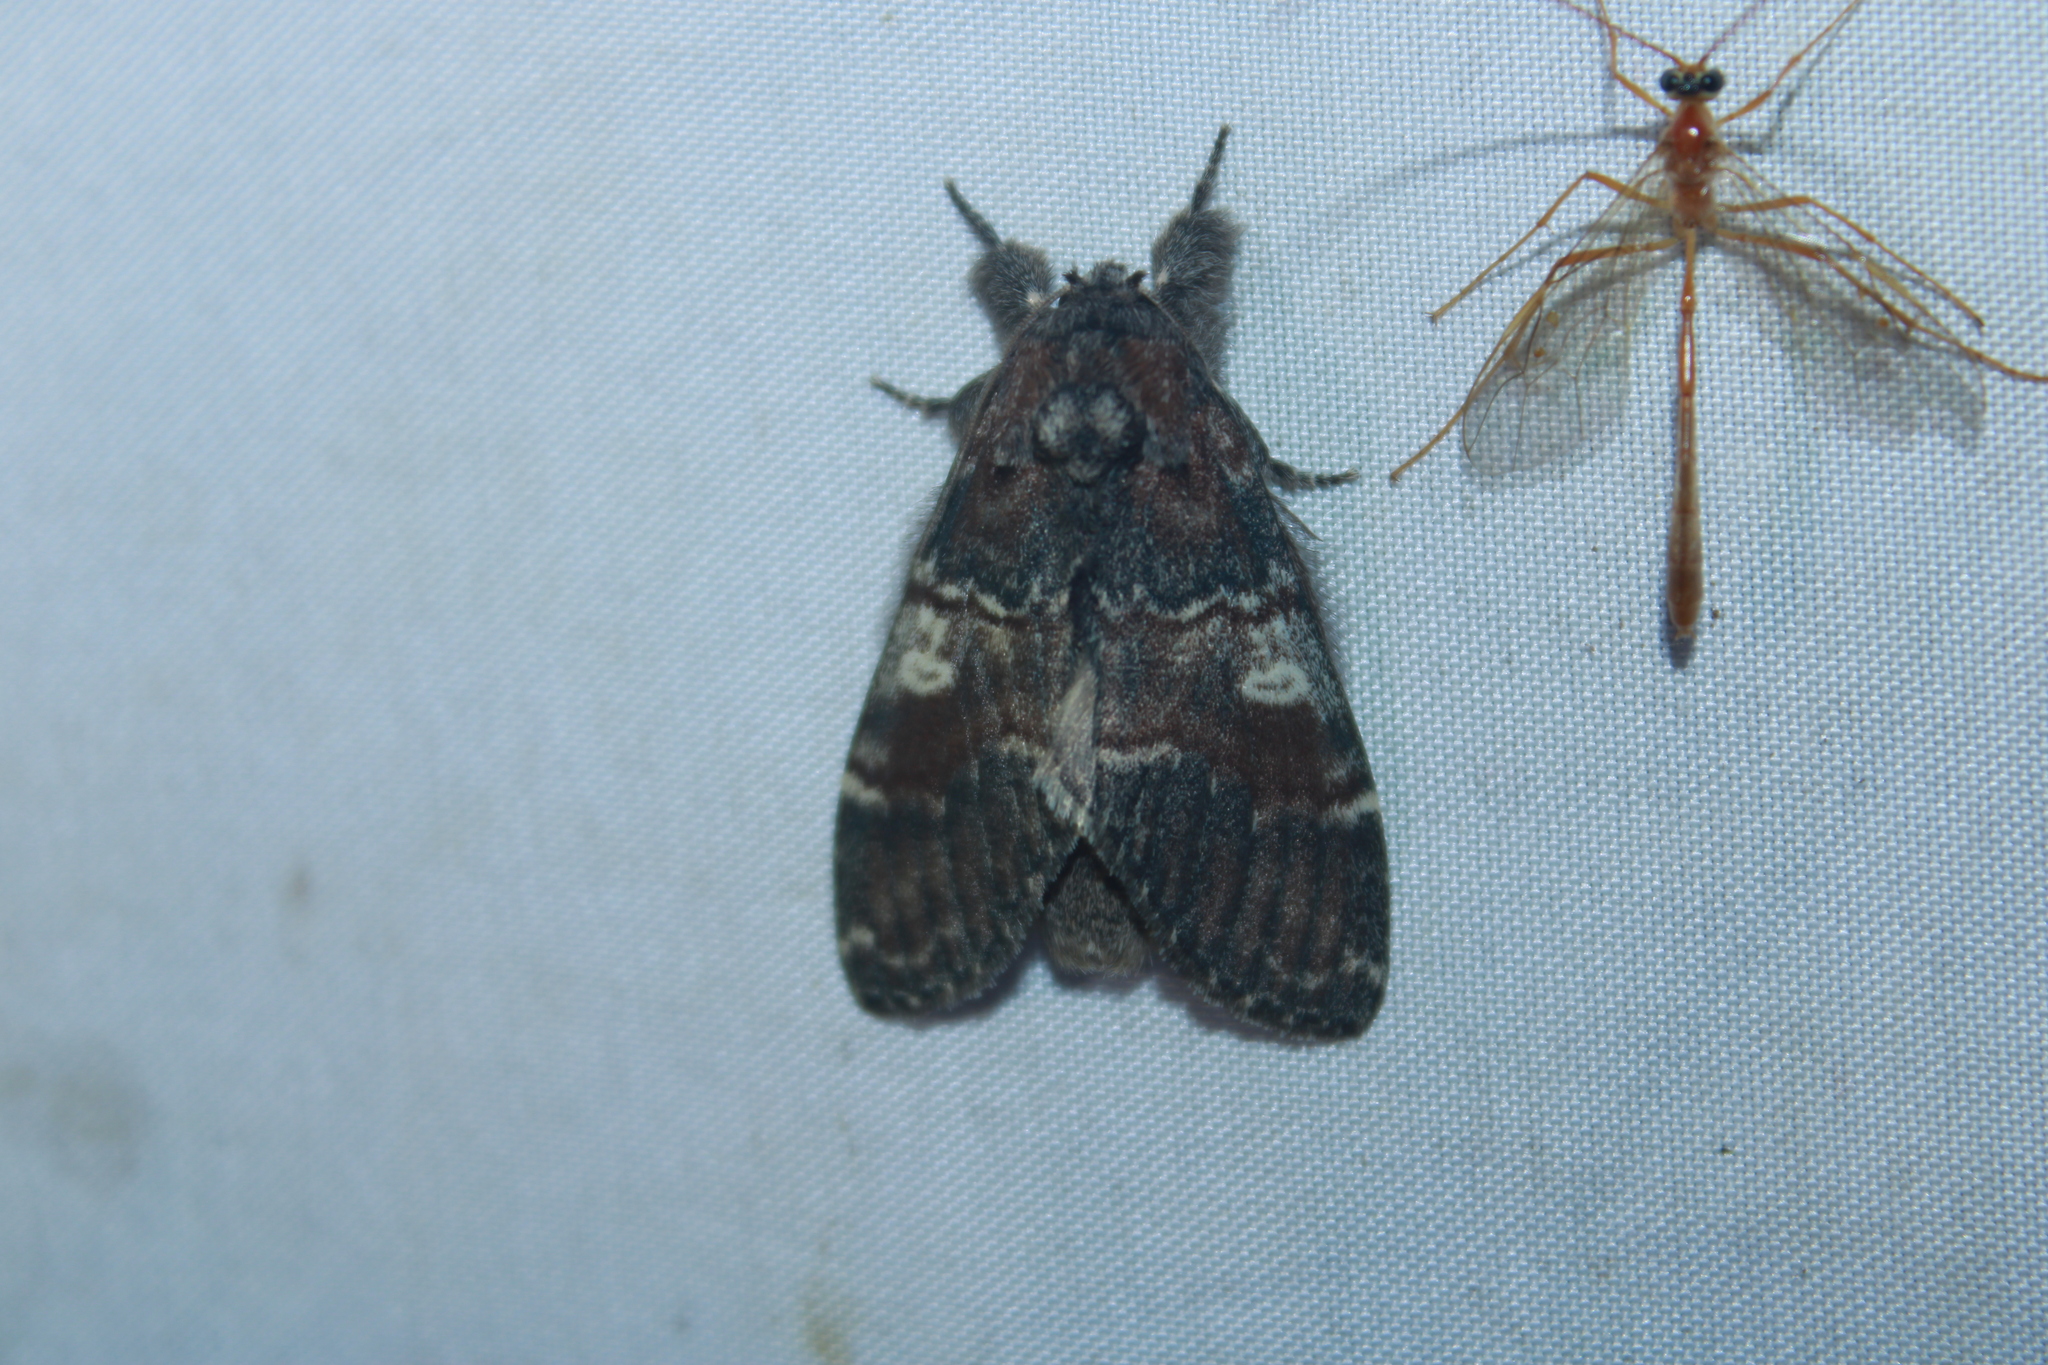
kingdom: Animalia
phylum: Arthropoda
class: Insecta
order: Lepidoptera
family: Notodontidae
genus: Peridea
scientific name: Peridea ferruginea
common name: Chocolate prominent
